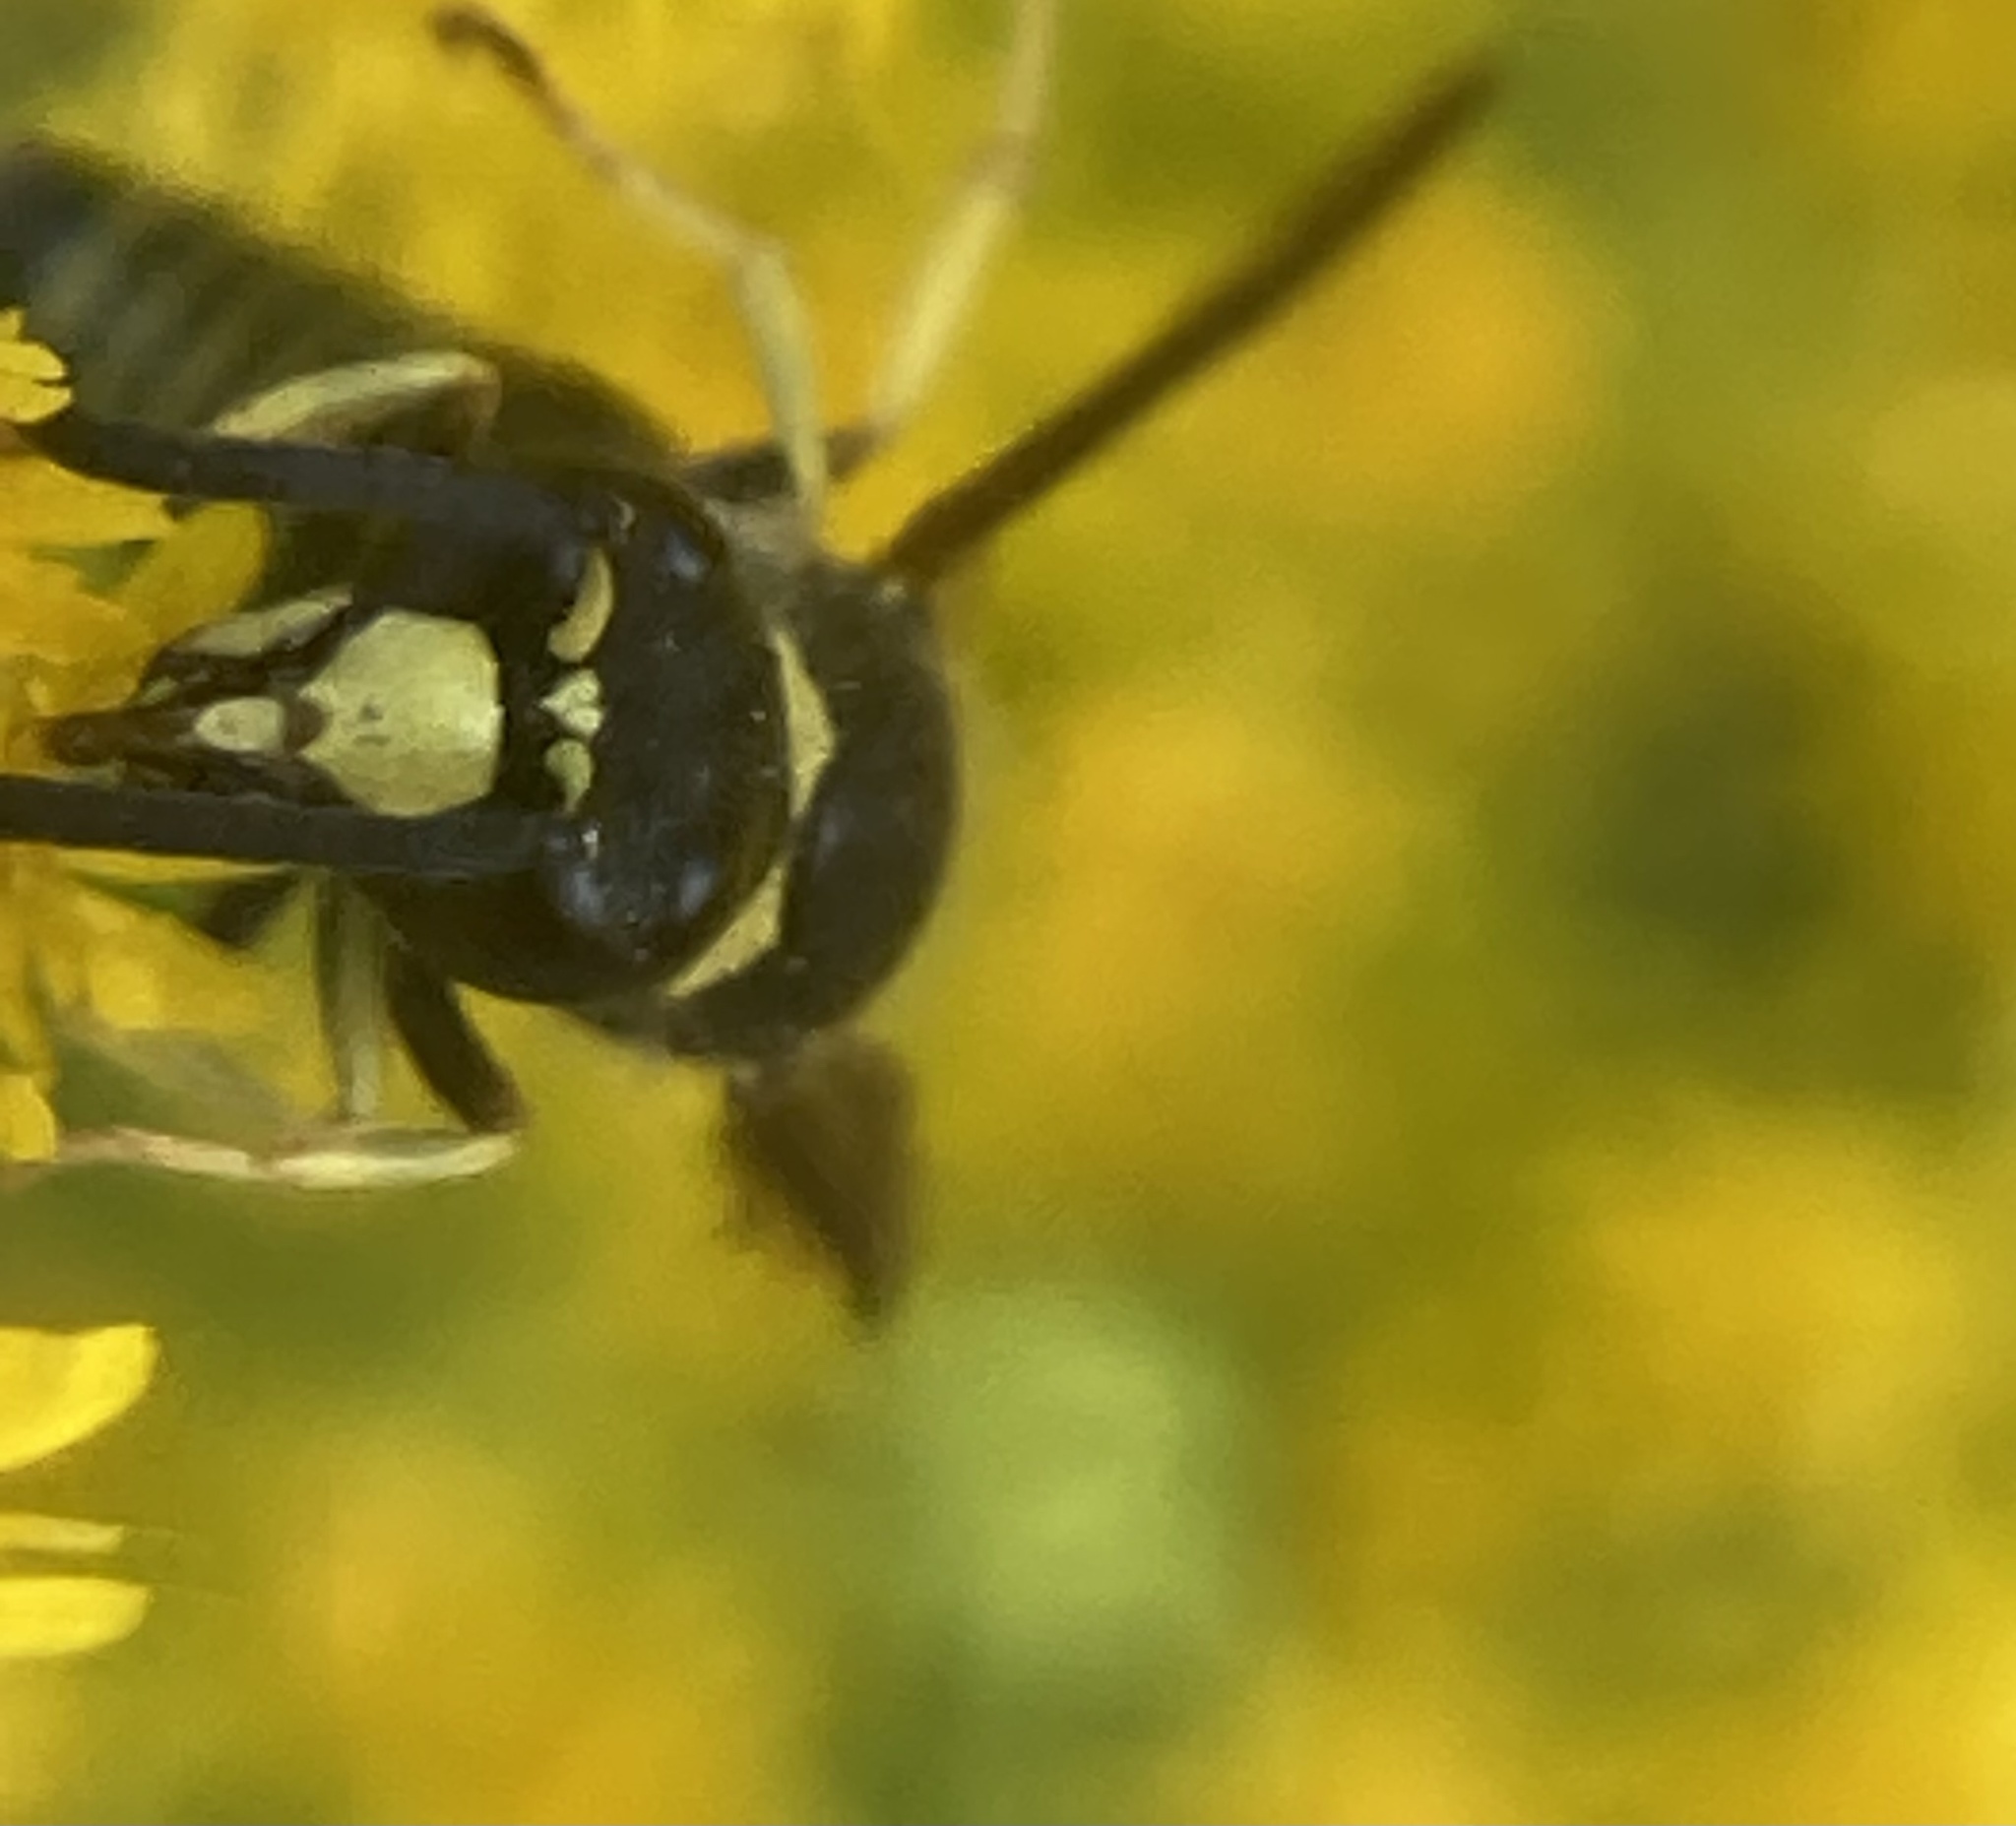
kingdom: Animalia
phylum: Arthropoda
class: Insecta
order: Hymenoptera
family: Vespidae
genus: Ancistrocerus
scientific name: Ancistrocerus
